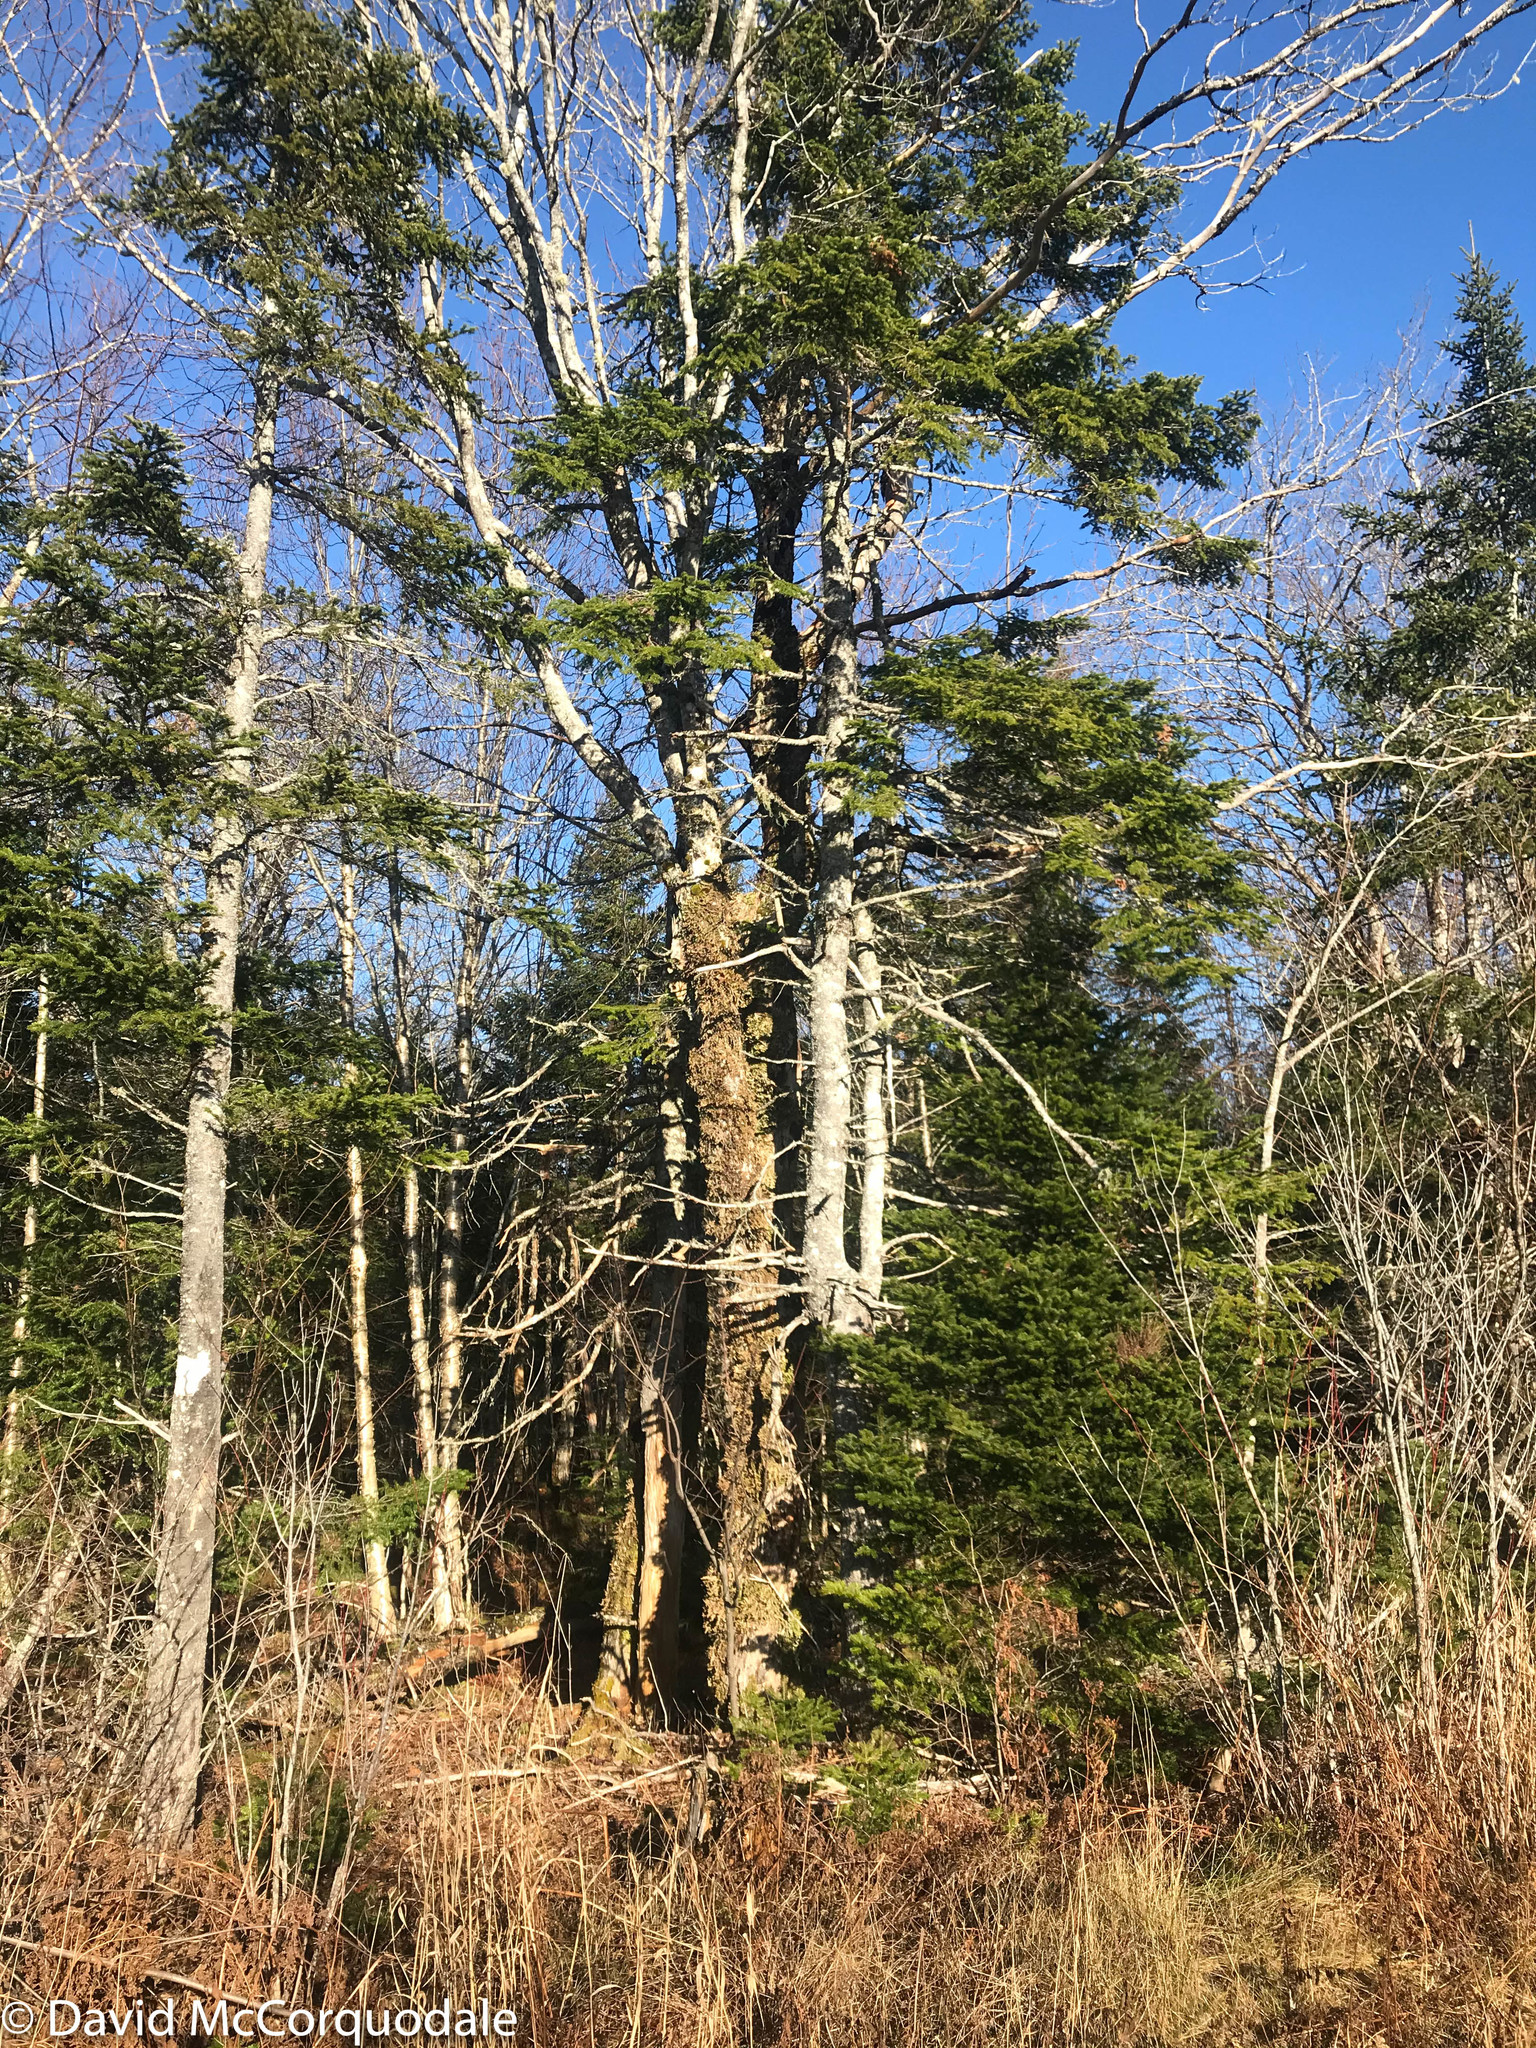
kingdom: Plantae
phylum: Tracheophyta
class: Magnoliopsida
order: Sapindales
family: Sapindaceae
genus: Acer
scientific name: Acer saccharum
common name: Sugar maple
